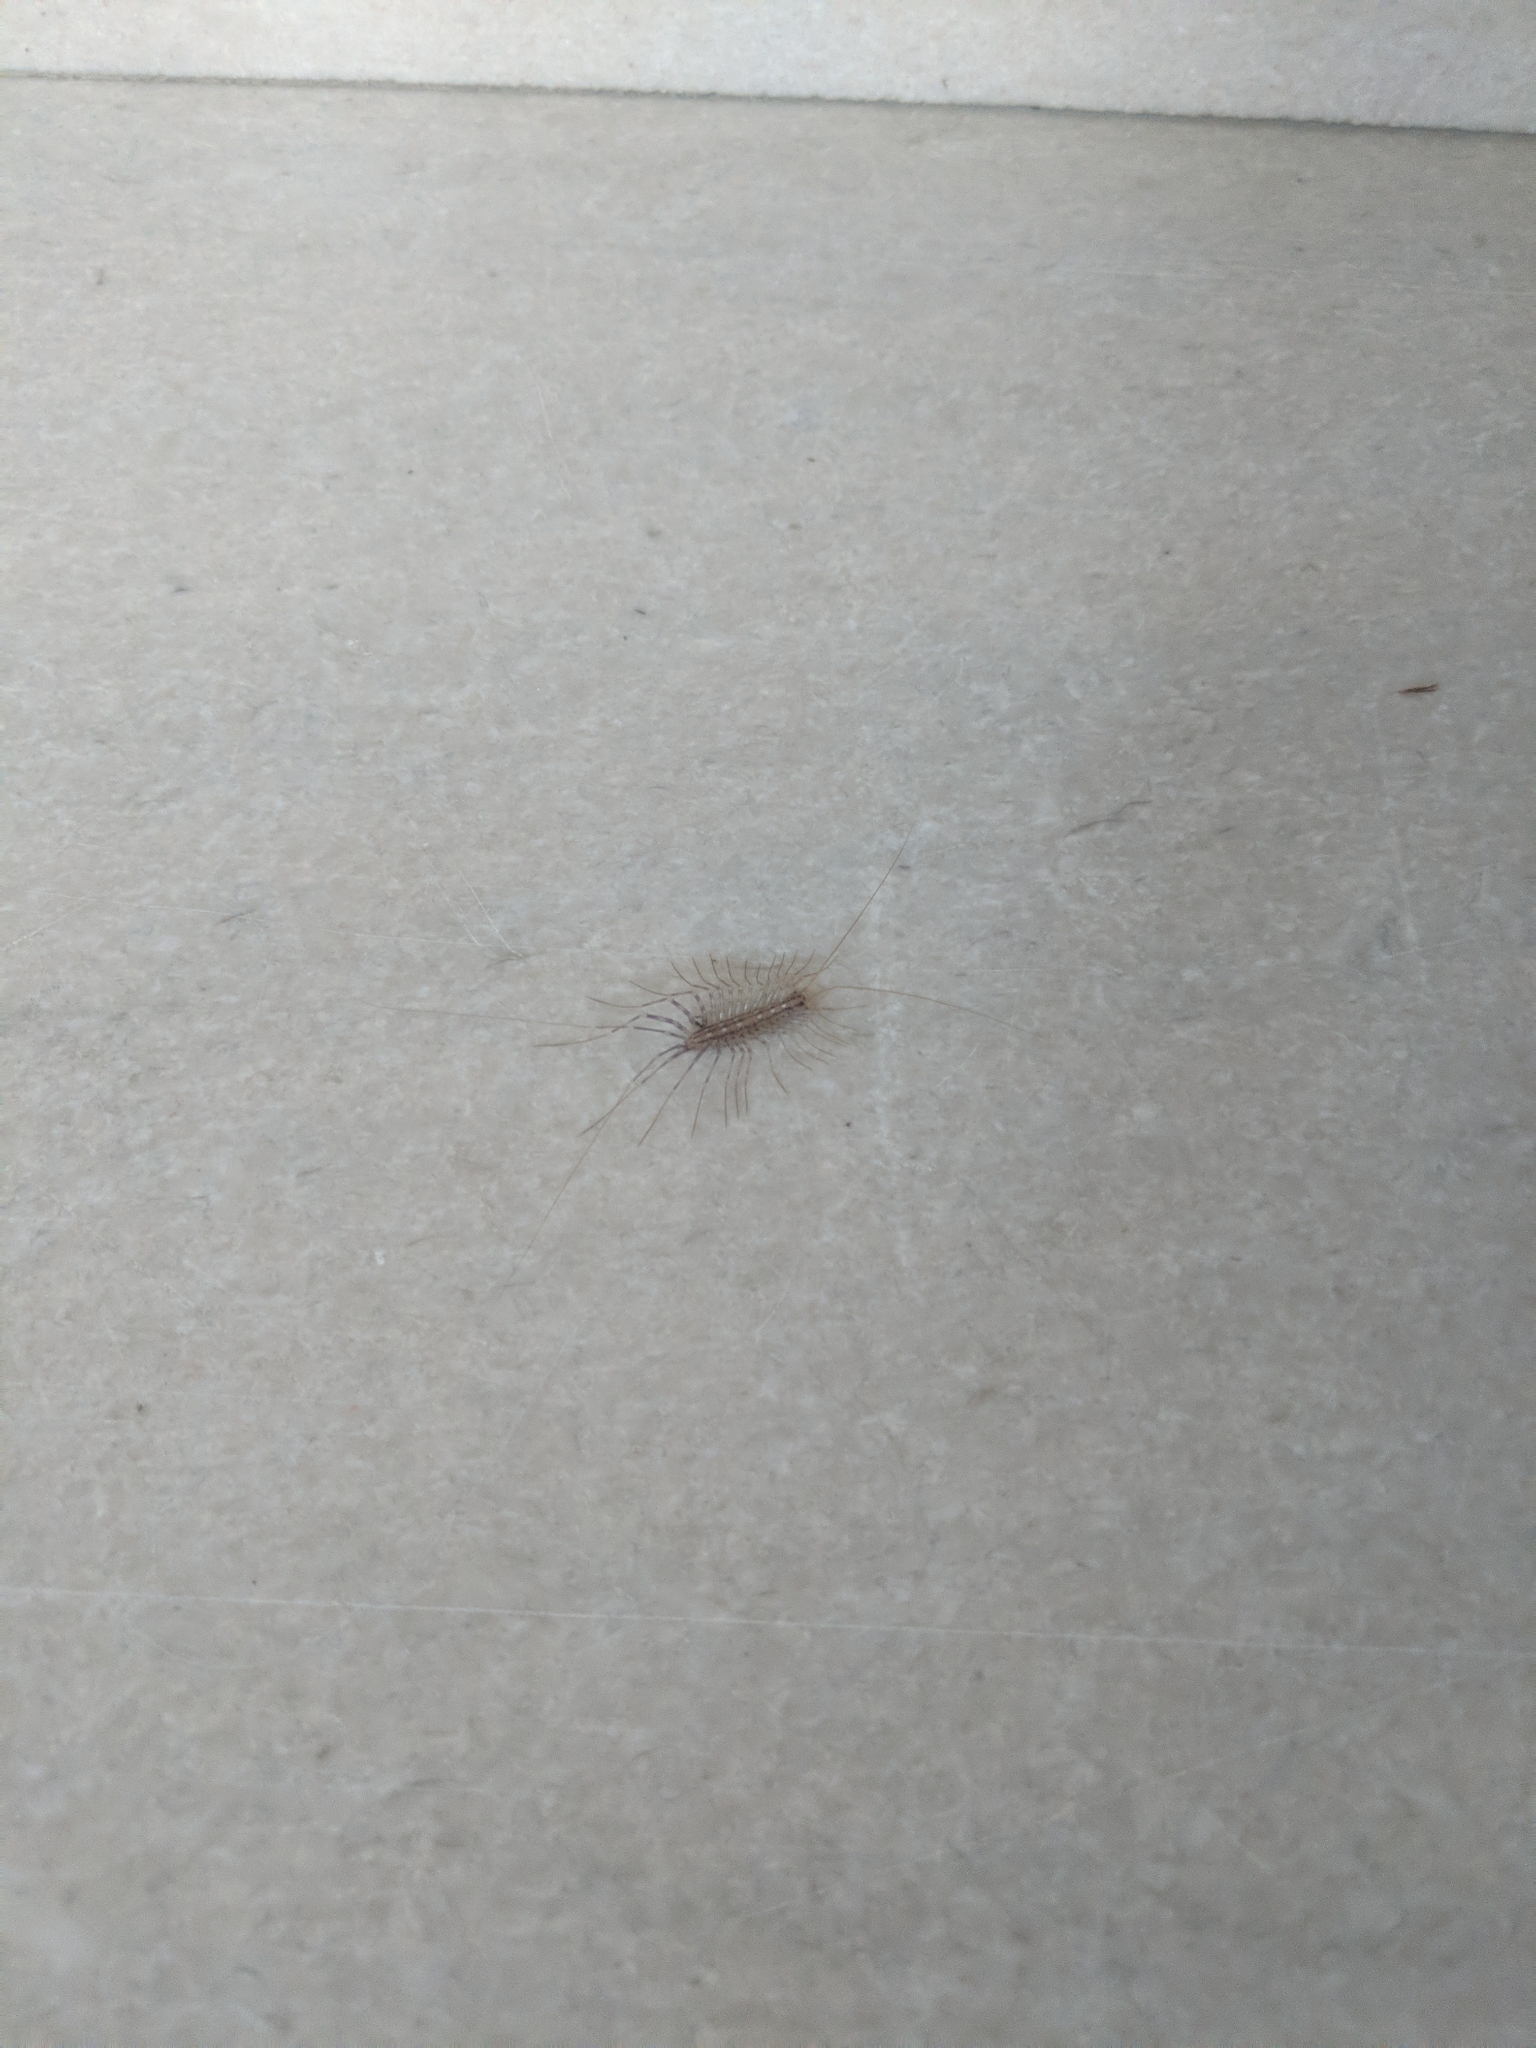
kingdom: Animalia
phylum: Arthropoda
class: Chilopoda
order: Scutigeromorpha
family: Scutigeridae
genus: Scutigera
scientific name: Scutigera coleoptrata
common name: House centipede
